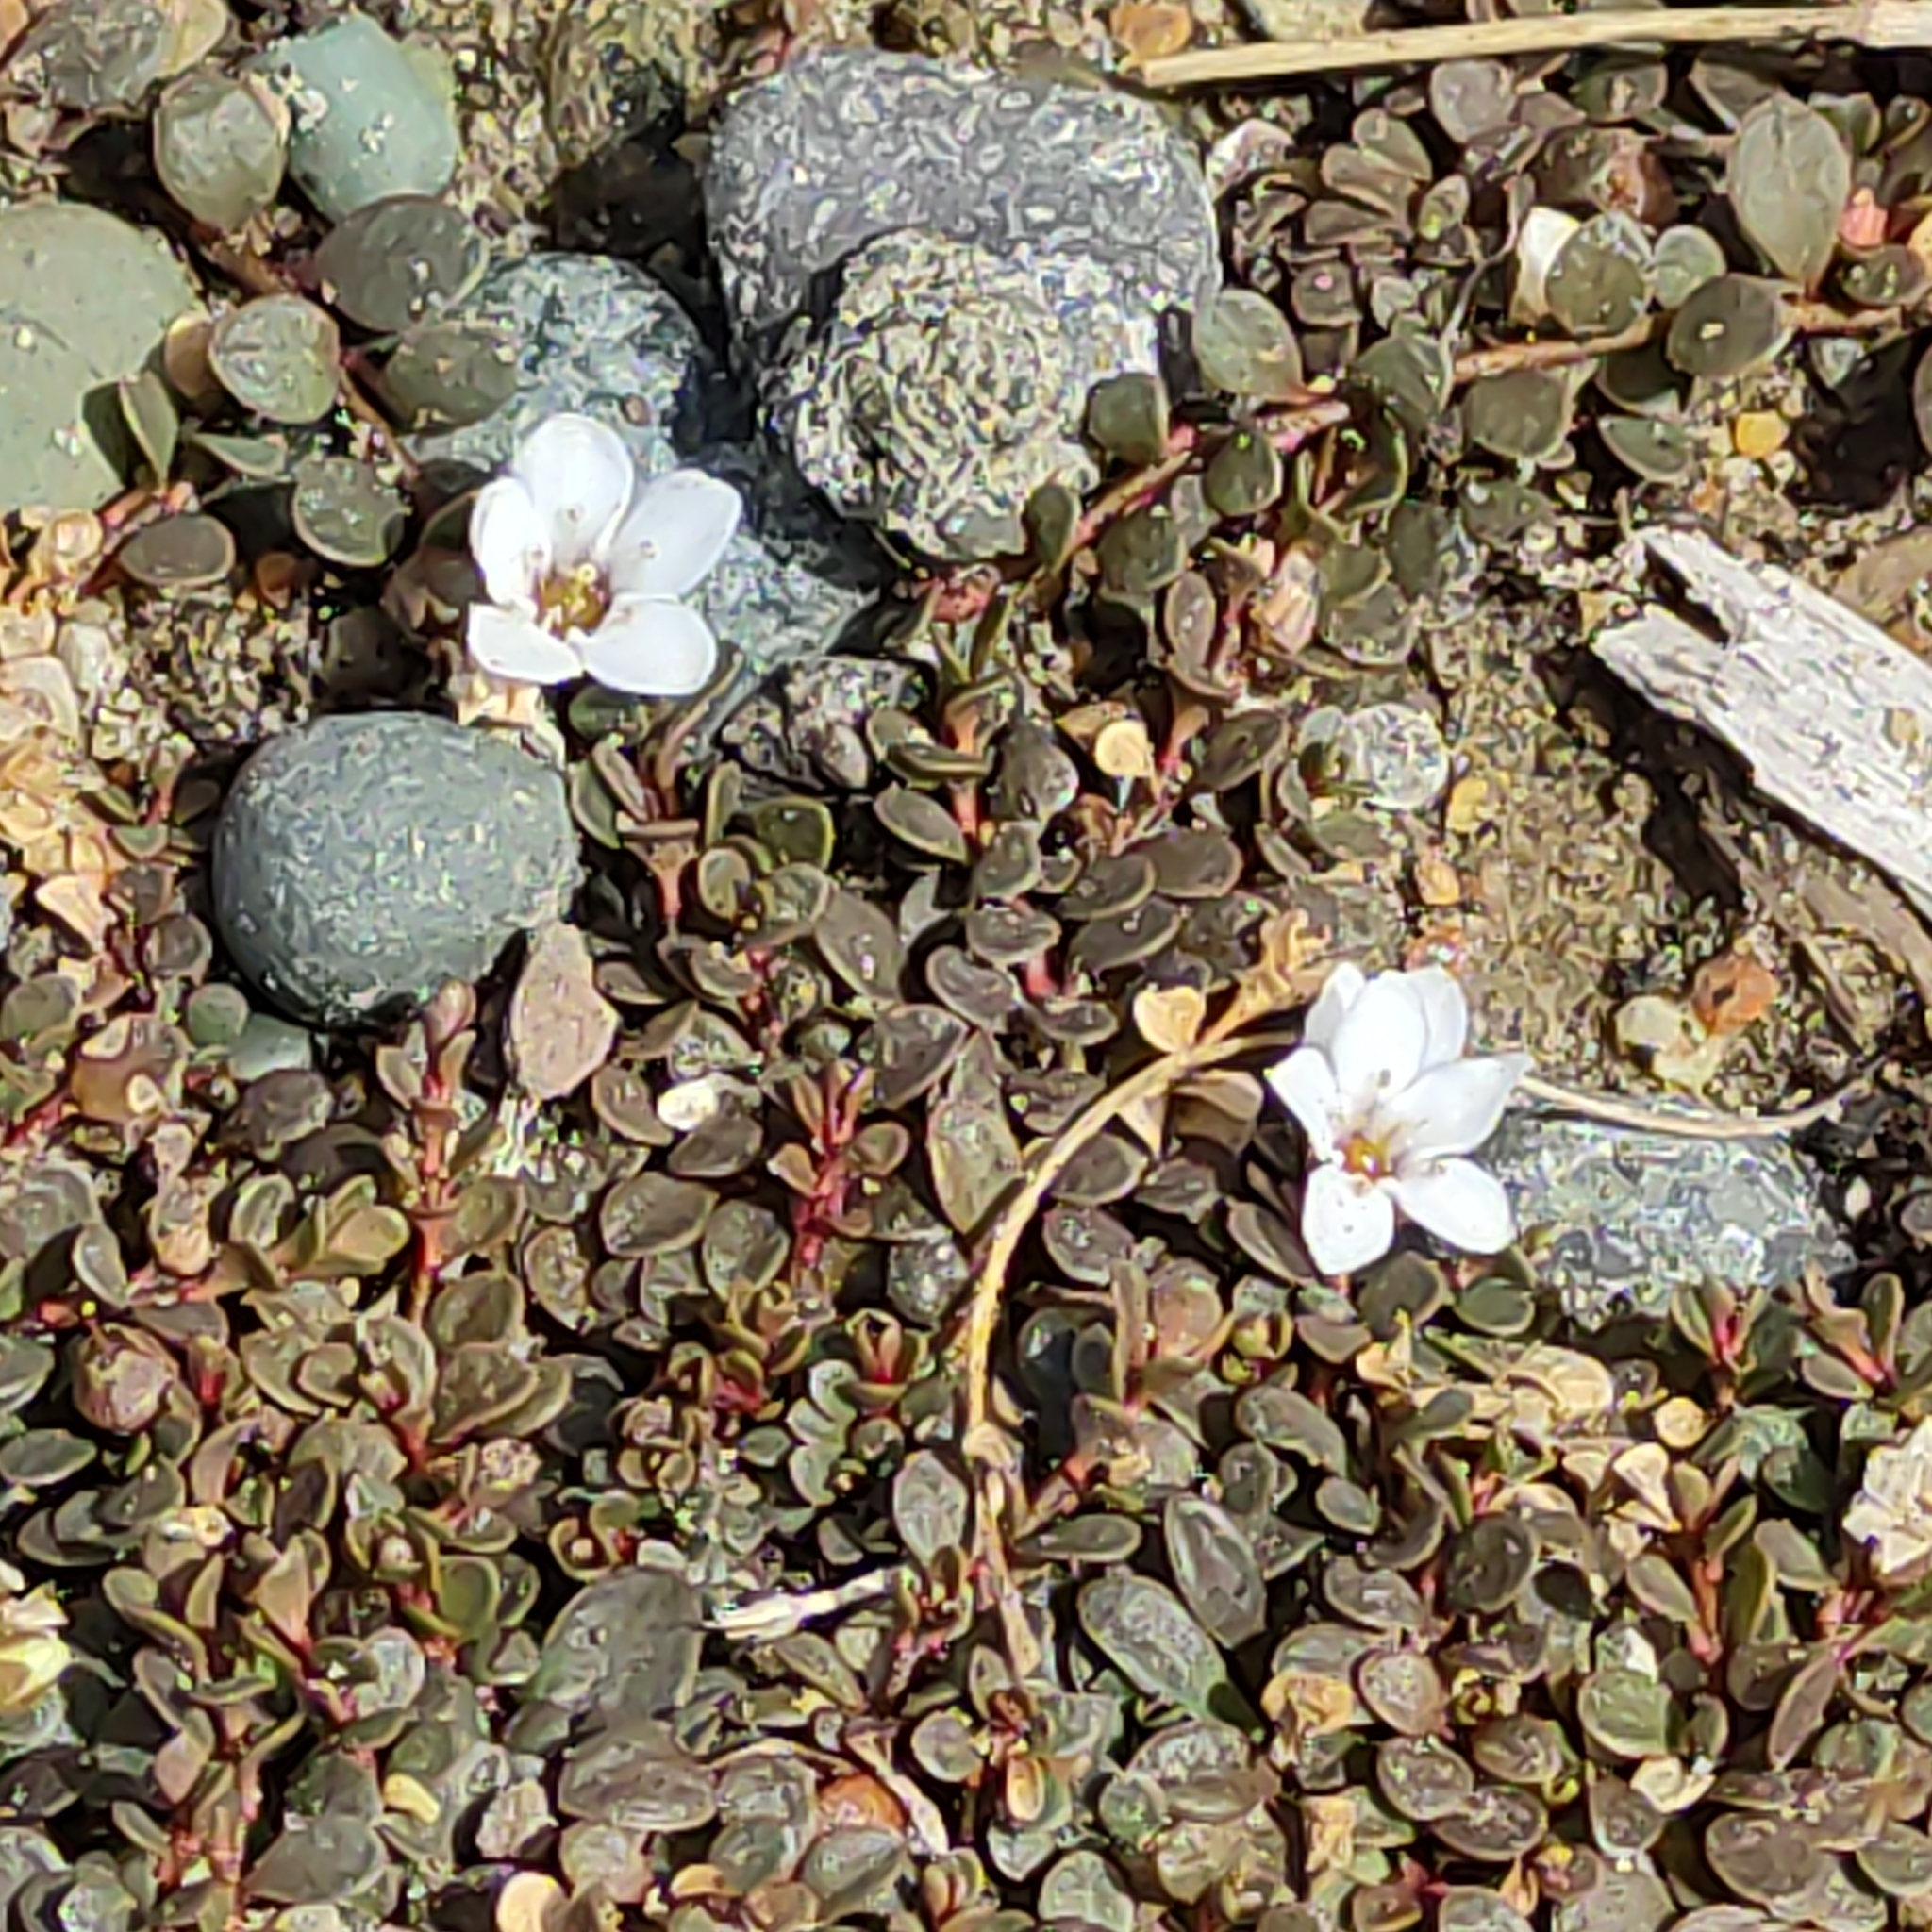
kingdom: Plantae
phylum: Tracheophyta
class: Magnoliopsida
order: Ericales
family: Primulaceae
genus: Samolus
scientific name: Samolus repens
